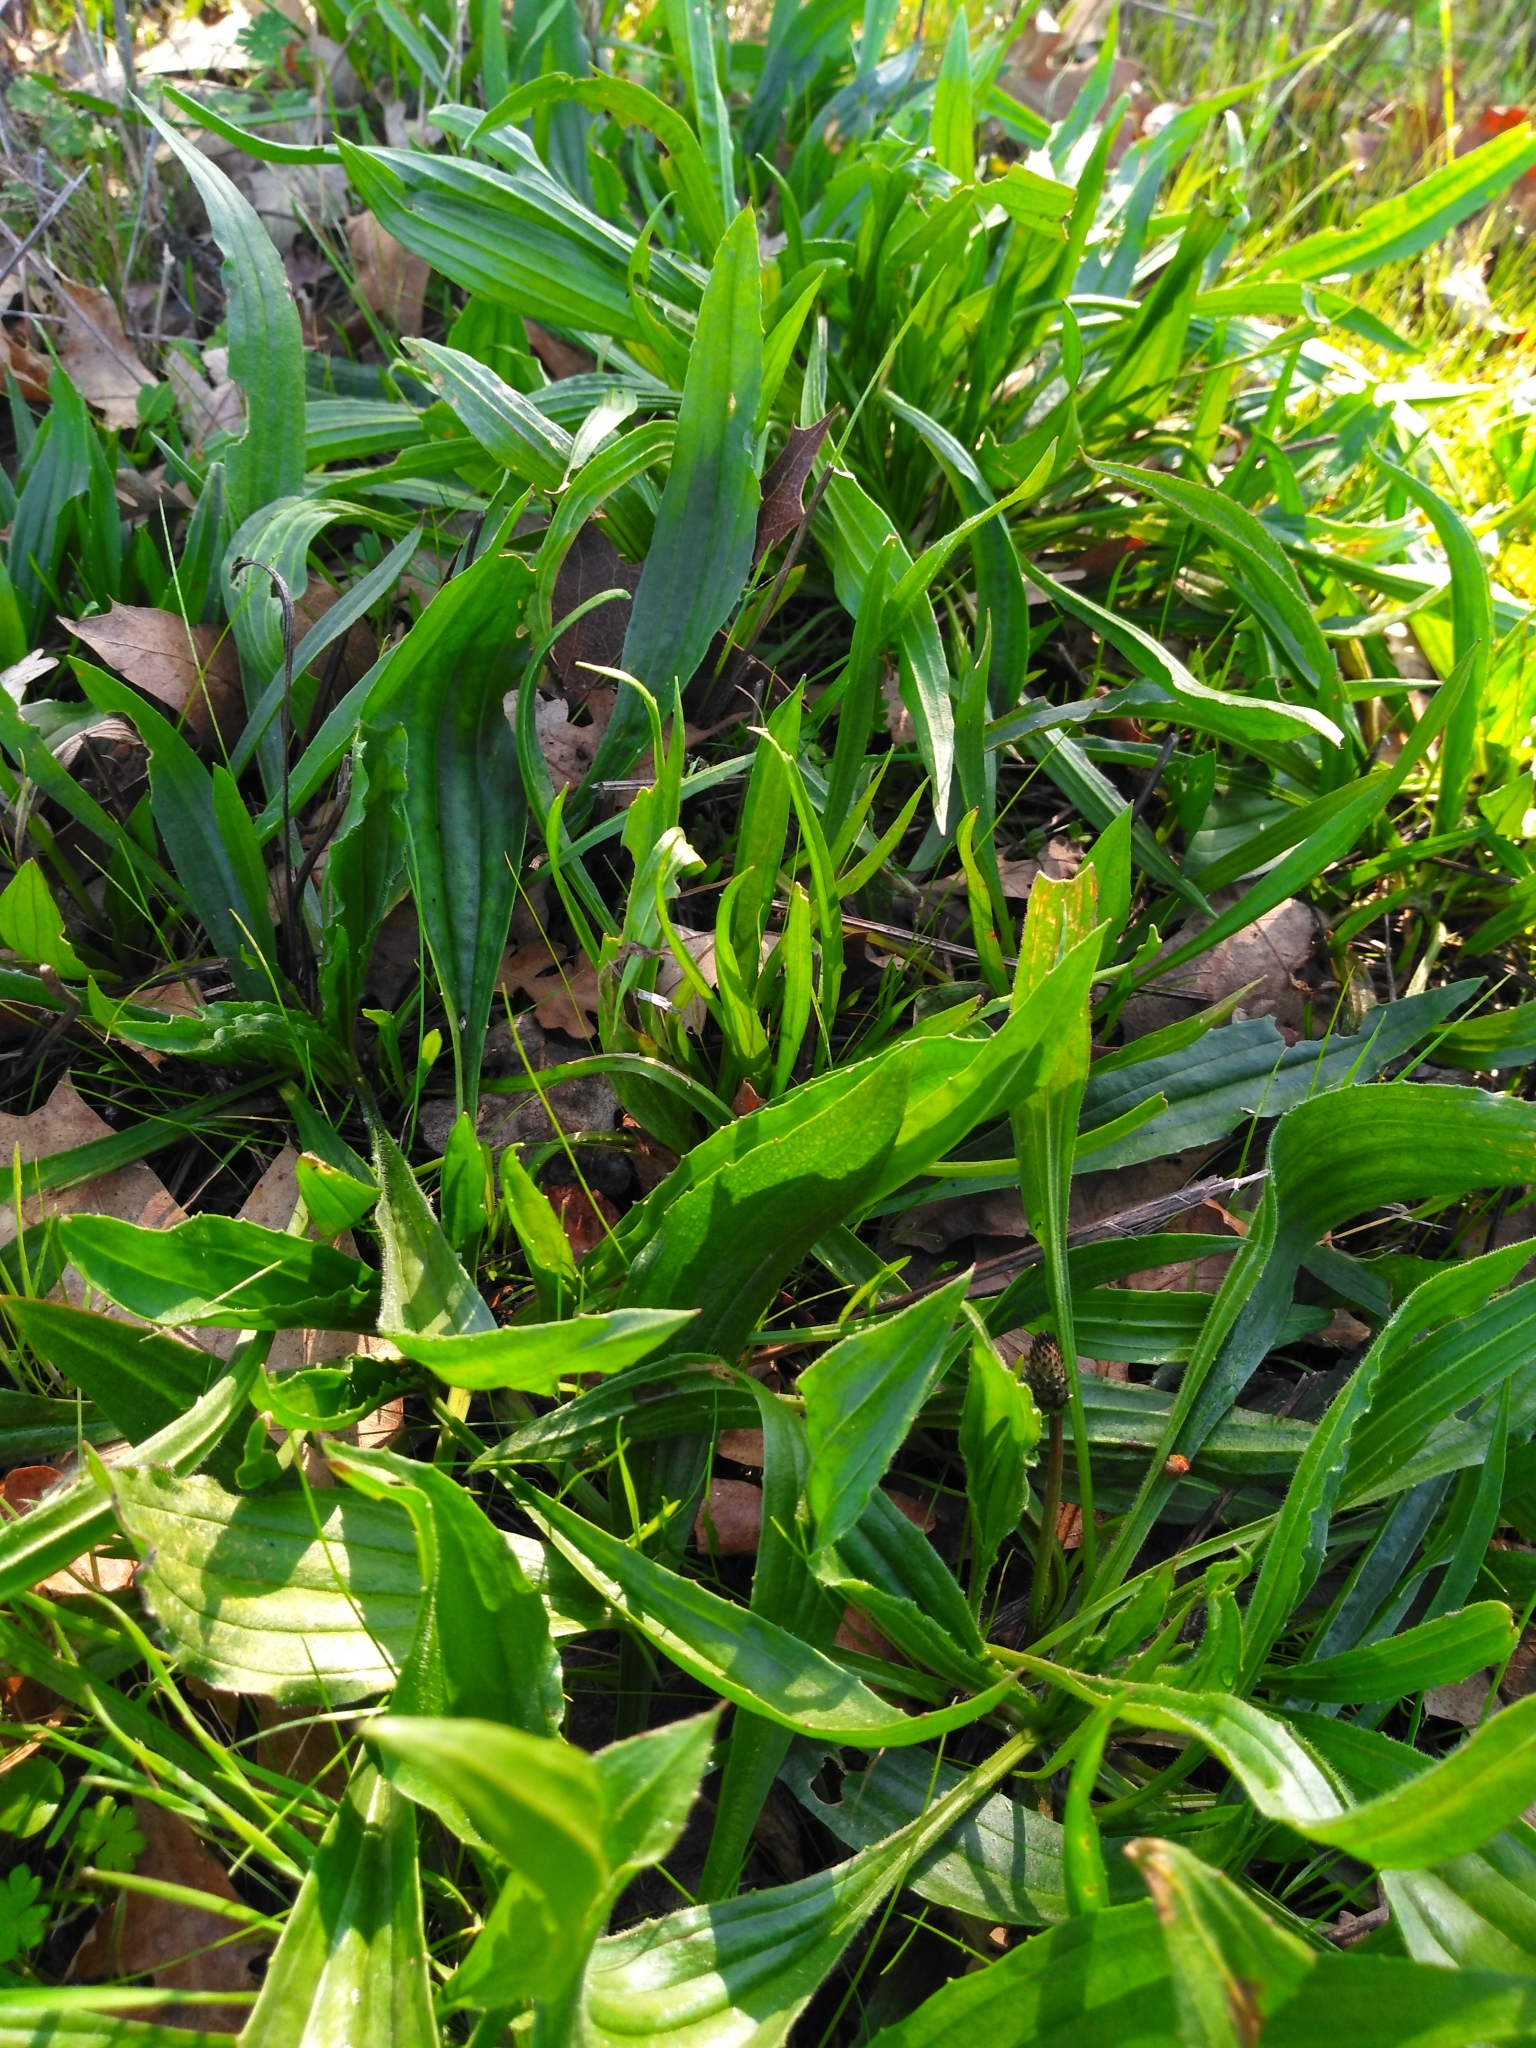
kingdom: Plantae
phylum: Tracheophyta
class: Magnoliopsida
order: Lamiales
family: Plantaginaceae
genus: Plantago
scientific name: Plantago lanceolata
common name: Ribwort plantain
